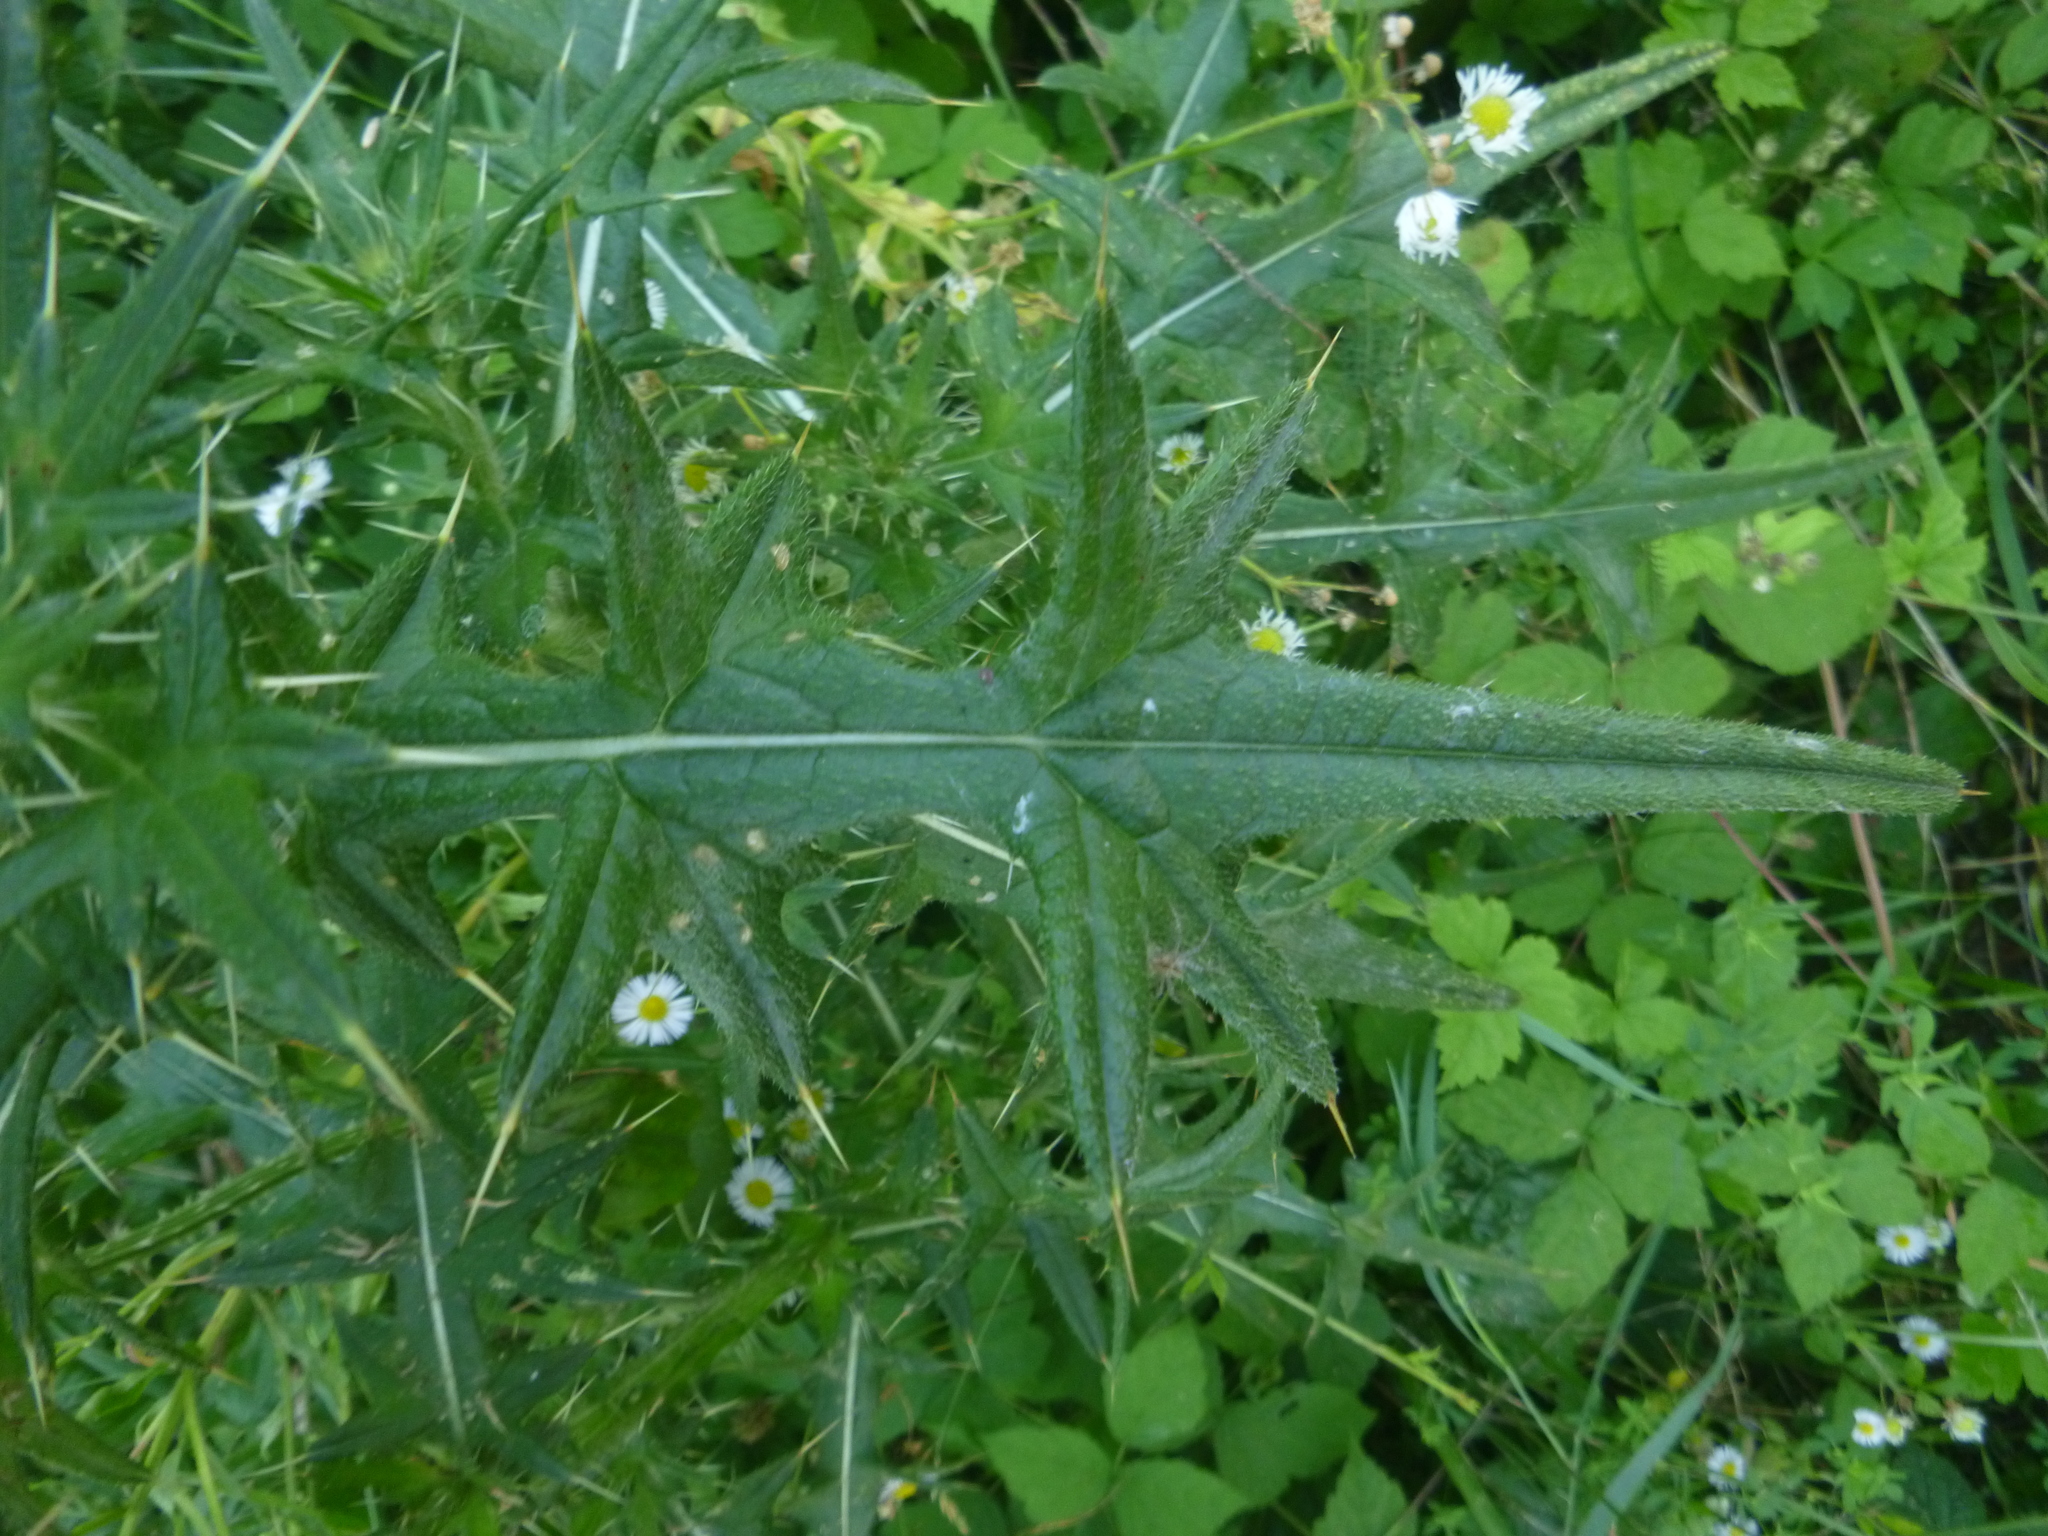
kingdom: Plantae
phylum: Tracheophyta
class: Magnoliopsida
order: Asterales
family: Asteraceae
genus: Cirsium
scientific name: Cirsium vulgare
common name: Bull thistle
